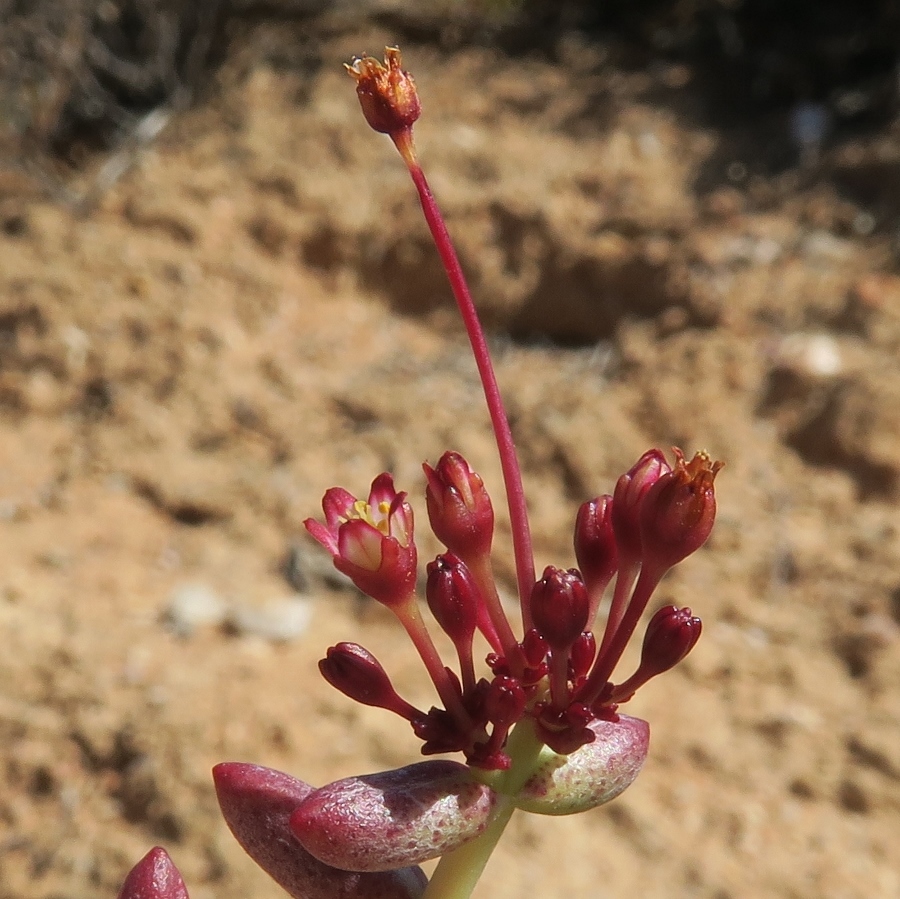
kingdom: Plantae
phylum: Tracheophyta
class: Magnoliopsida
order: Saxifragales
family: Crassulaceae
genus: Crassula
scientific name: Crassula expansa
